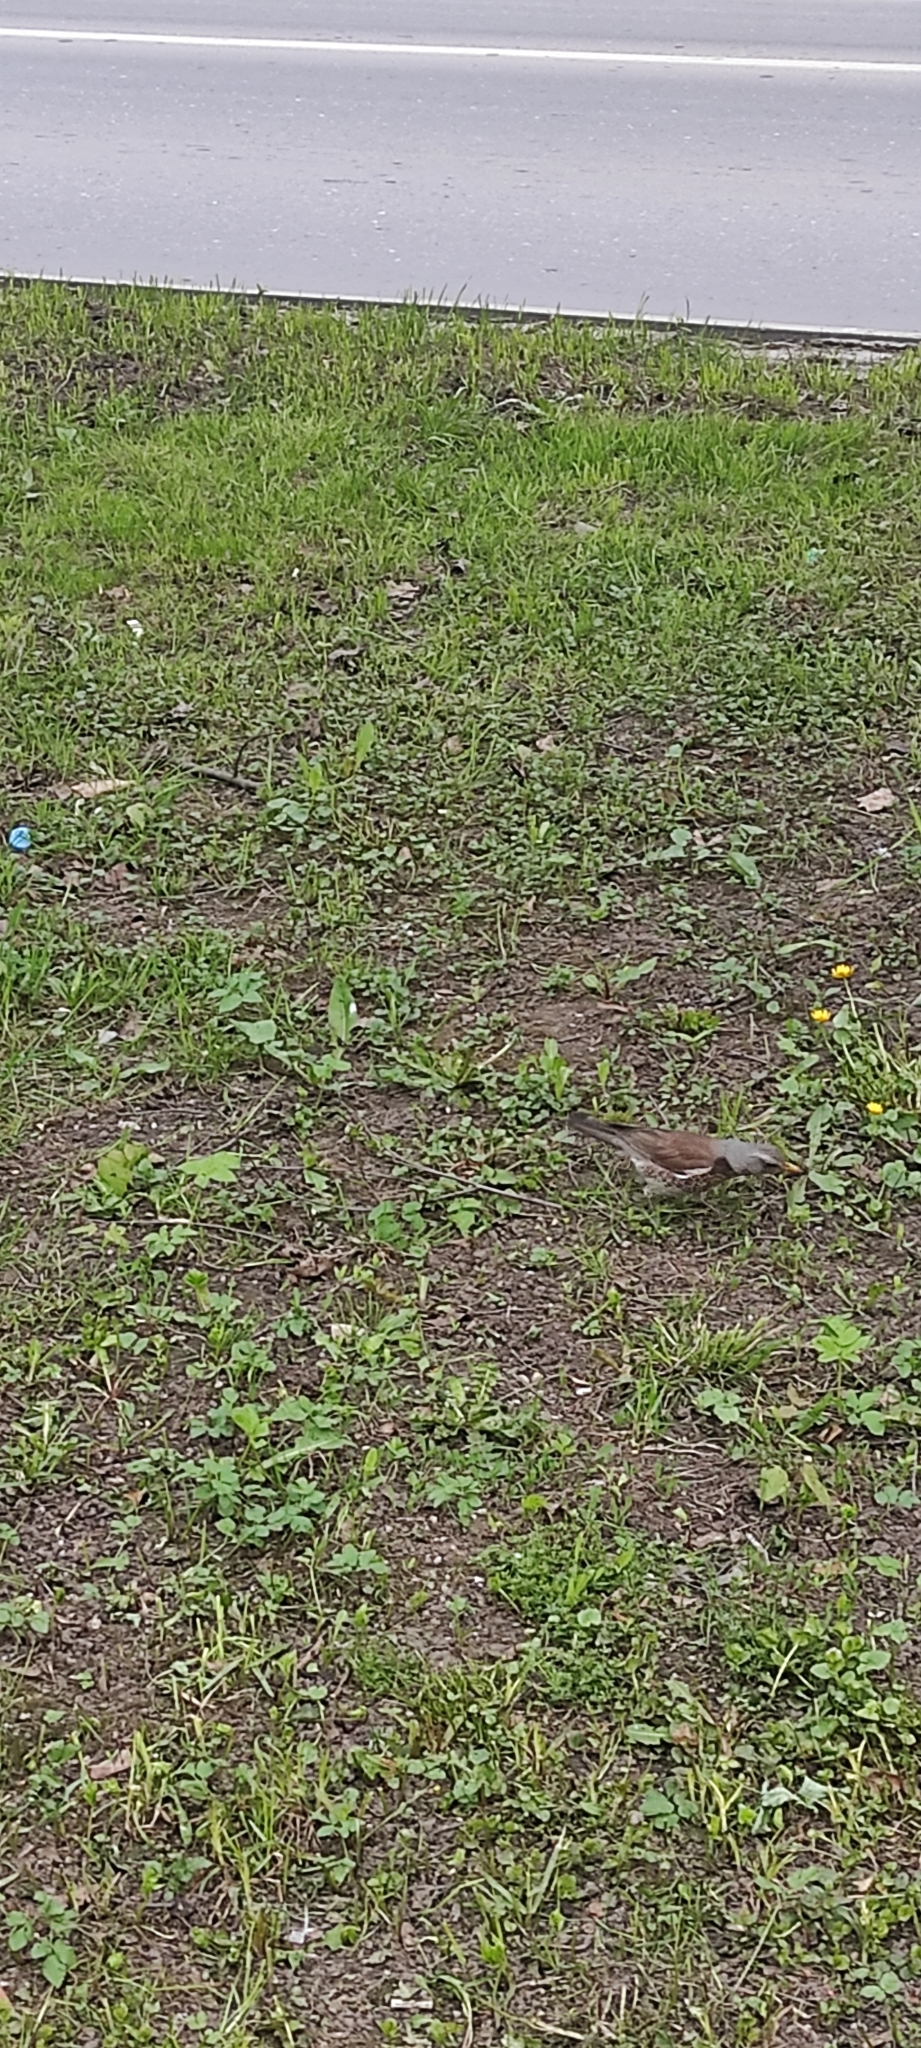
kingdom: Animalia
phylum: Chordata
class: Aves
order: Passeriformes
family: Turdidae
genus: Turdus
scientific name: Turdus pilaris
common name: Fieldfare
